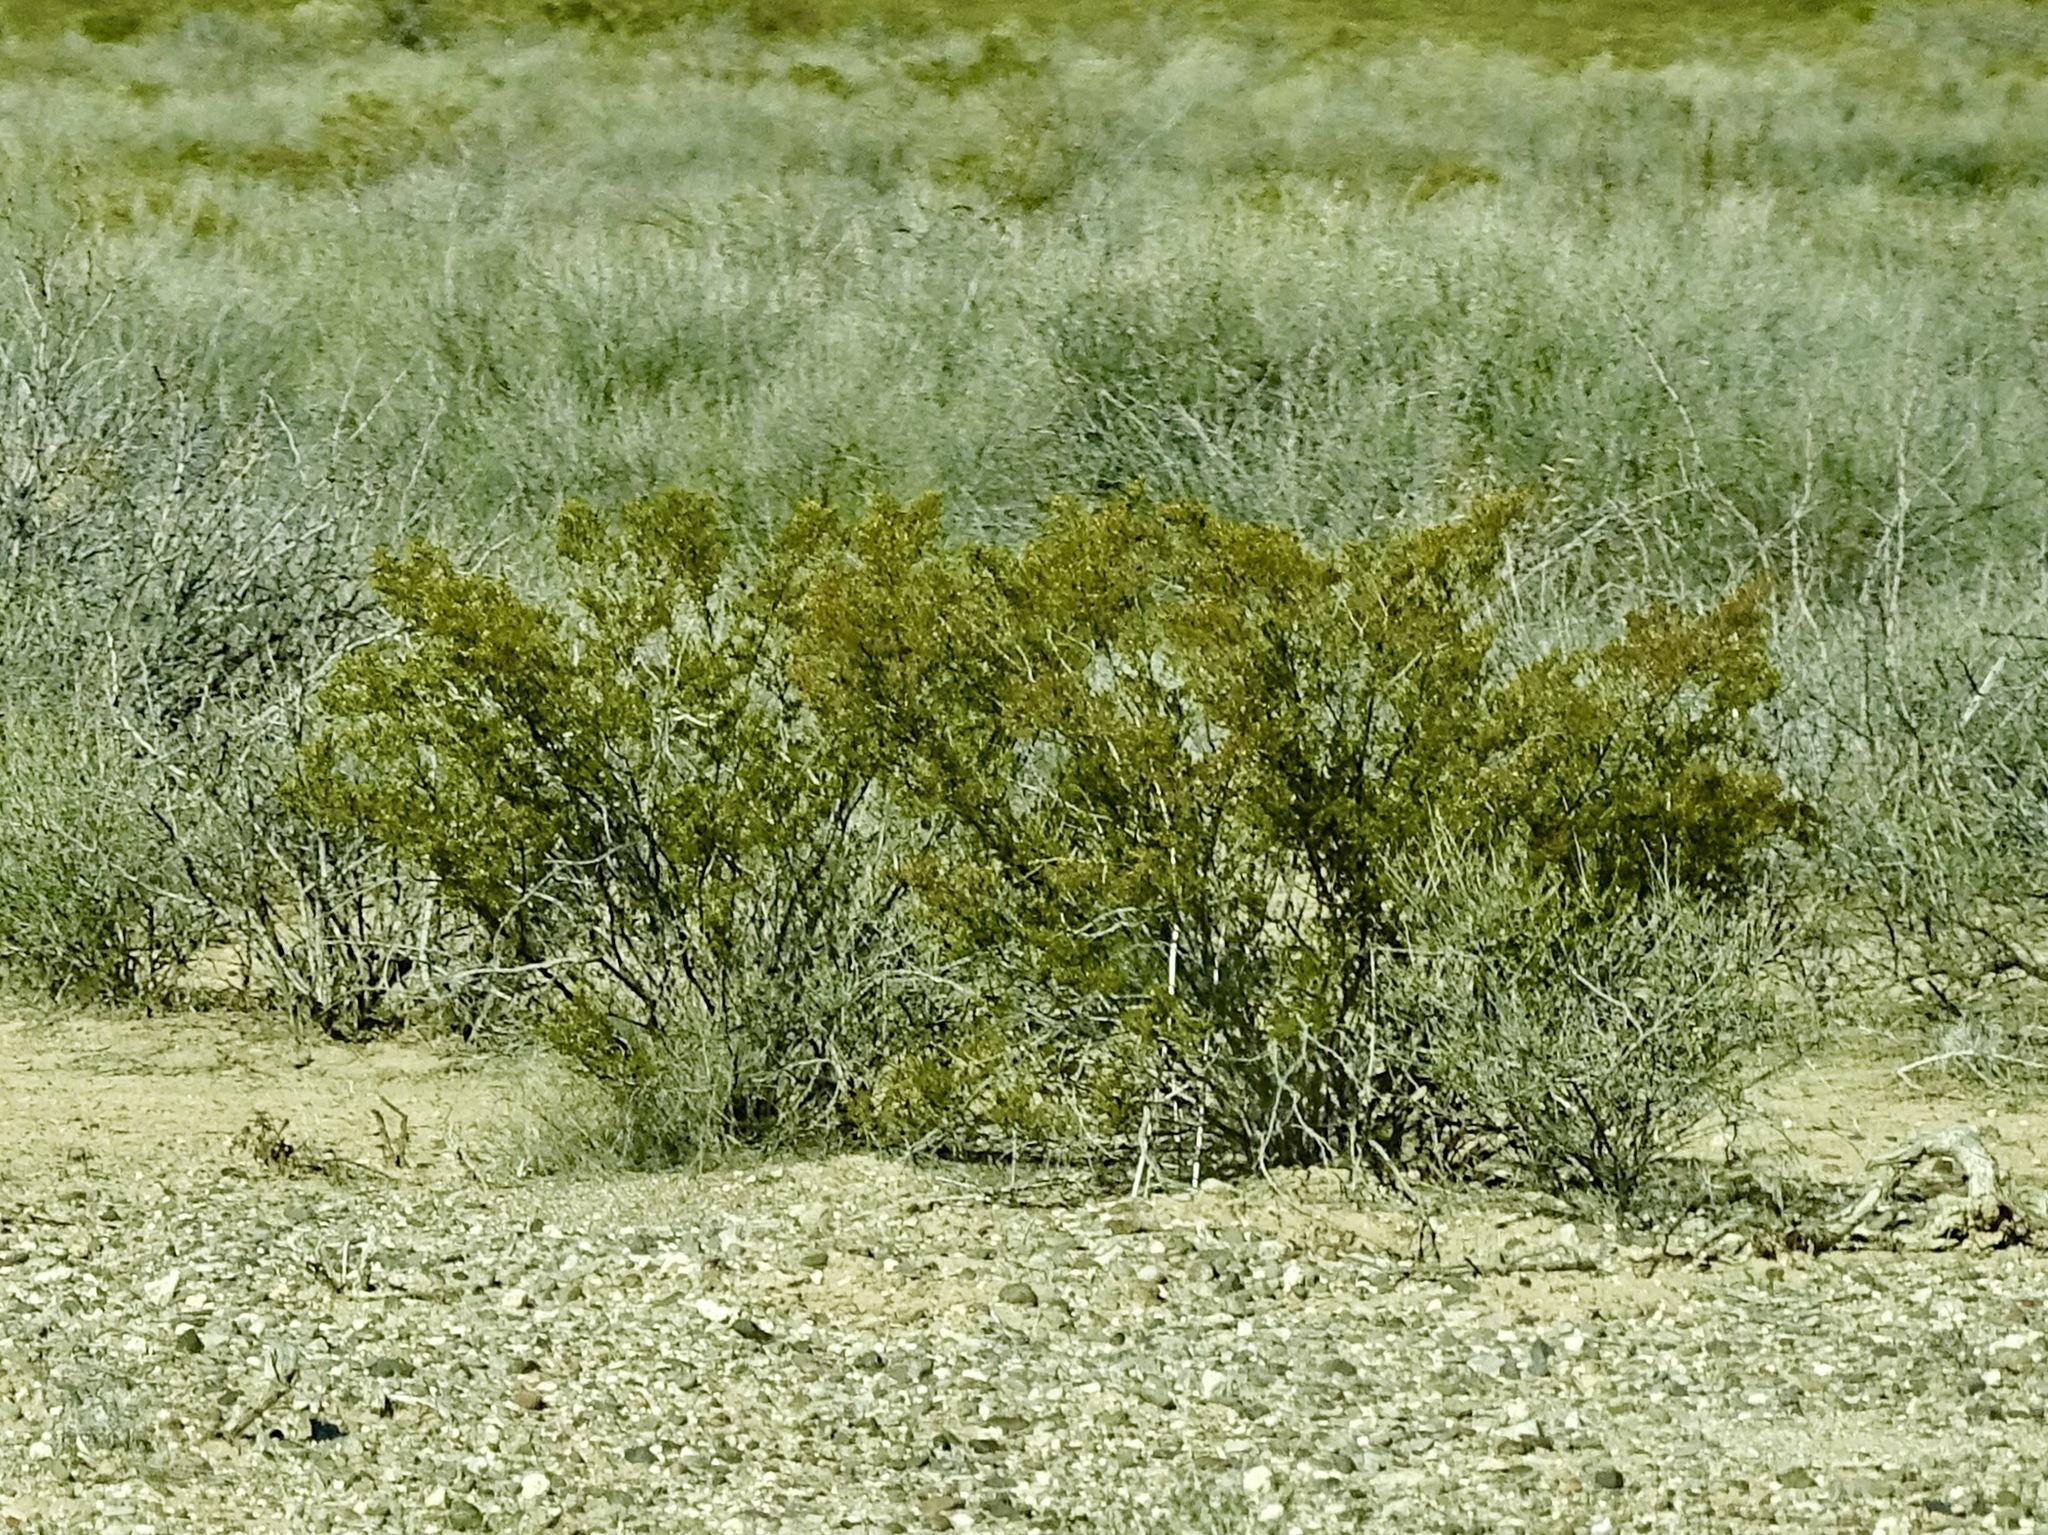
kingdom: Plantae
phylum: Tracheophyta
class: Magnoliopsida
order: Zygophyllales
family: Zygophyllaceae
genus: Larrea
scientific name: Larrea tridentata
